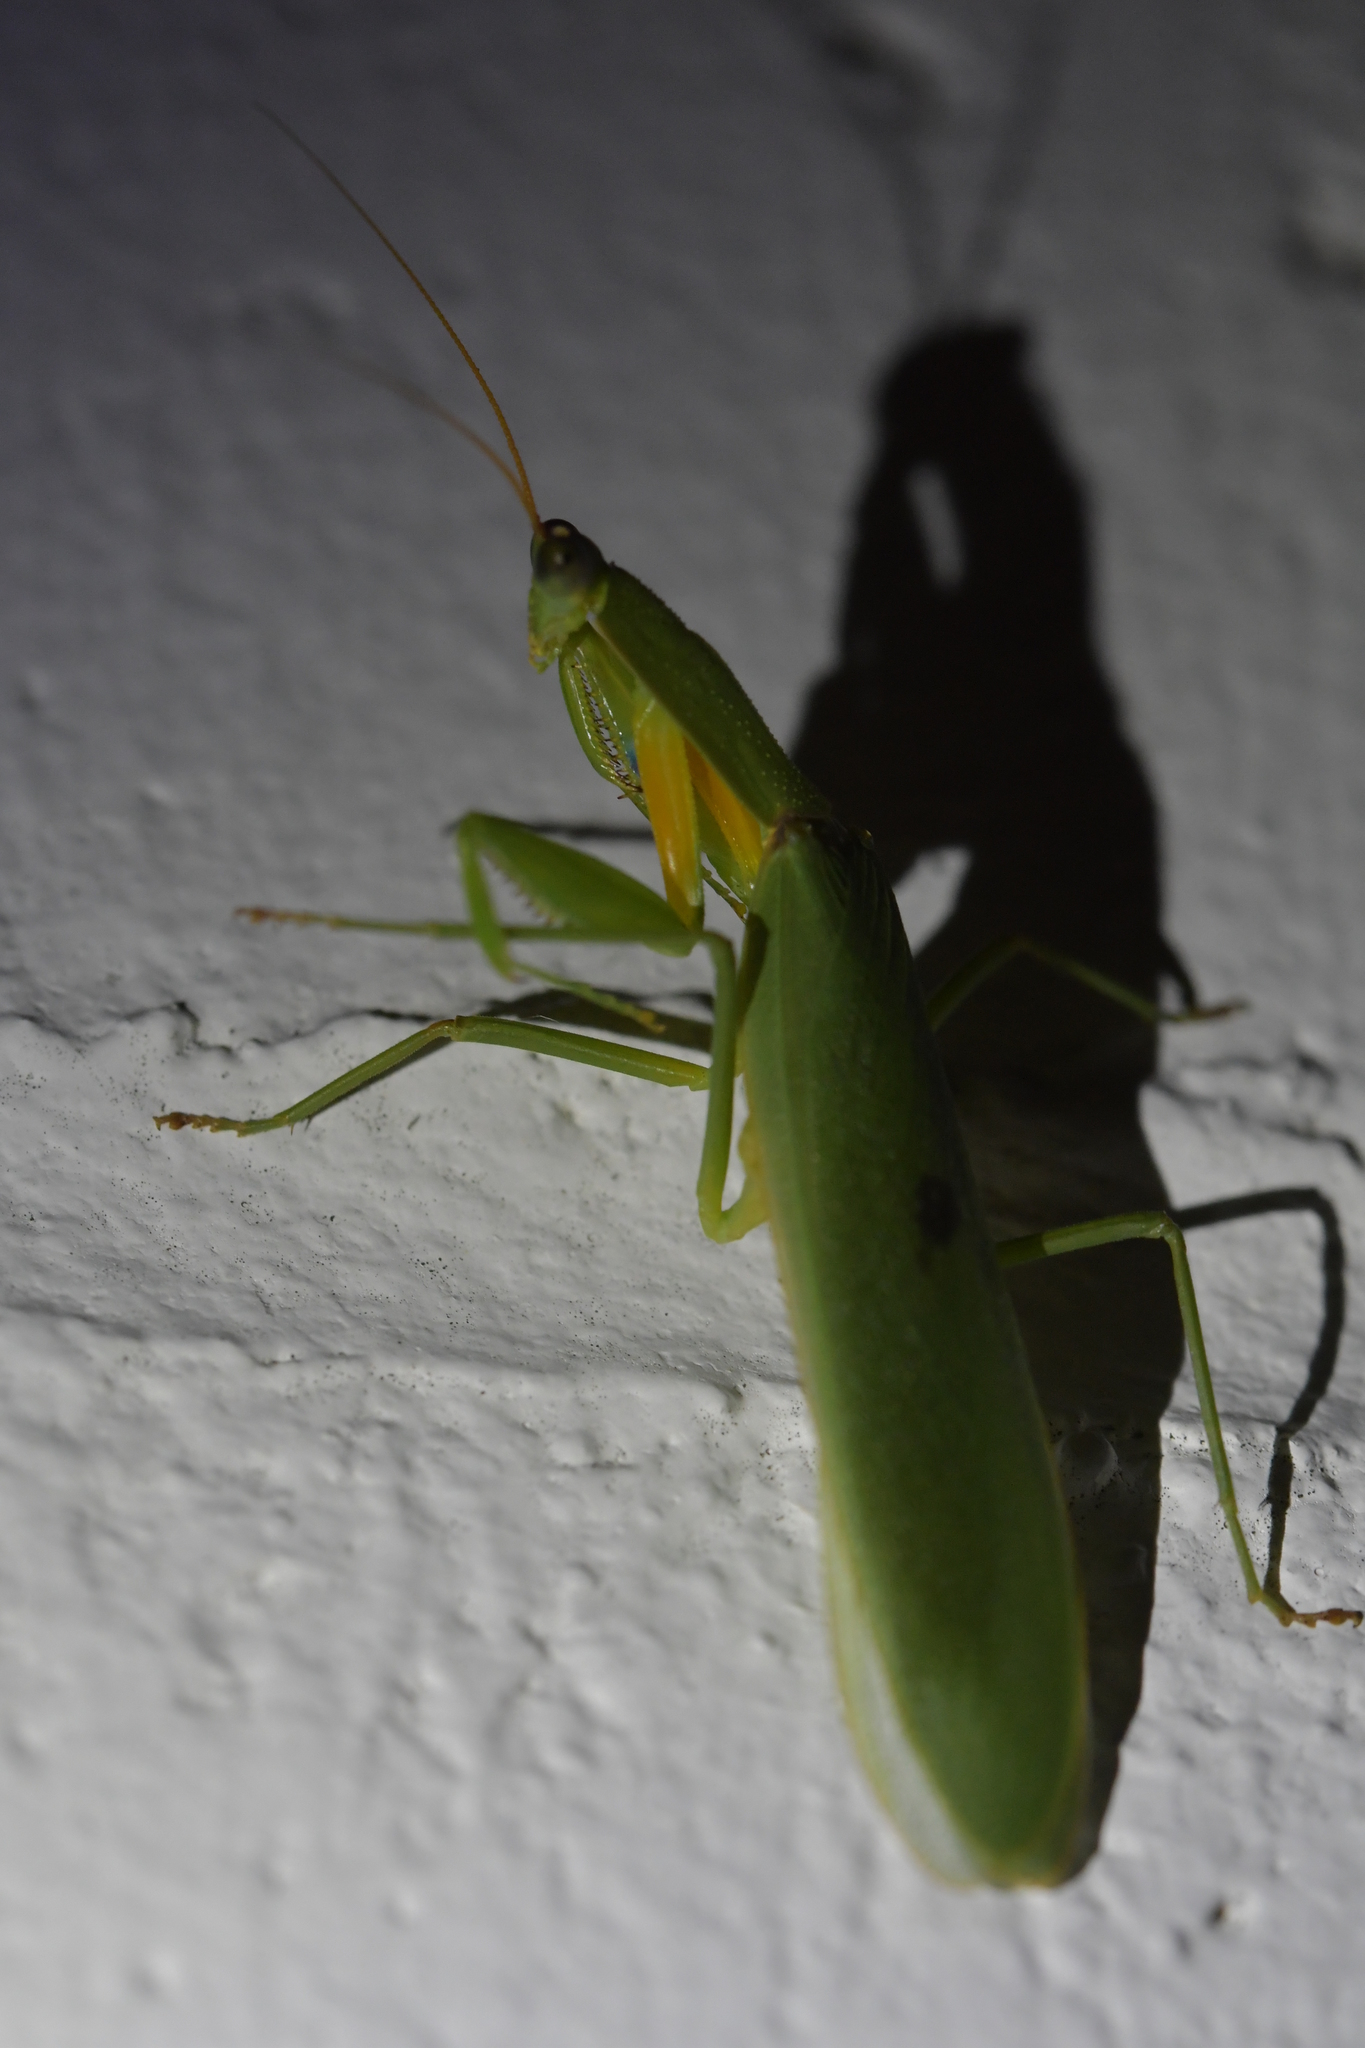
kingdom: Animalia
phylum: Arthropoda
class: Insecta
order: Mantodea
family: Mantidae
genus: Orthodera
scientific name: Orthodera novaezealandiae
